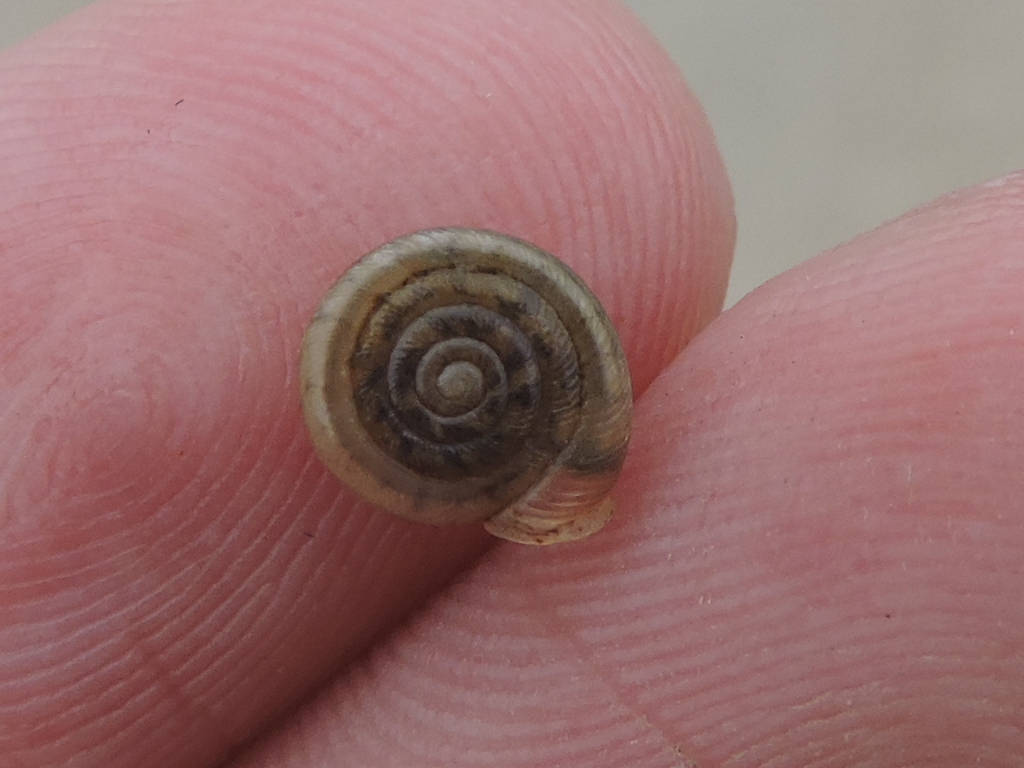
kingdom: Animalia
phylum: Mollusca
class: Gastropoda
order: Stylommatophora
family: Polygyridae
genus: Polygyra
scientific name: Polygyra cereolus
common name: Southern flatcone snail
